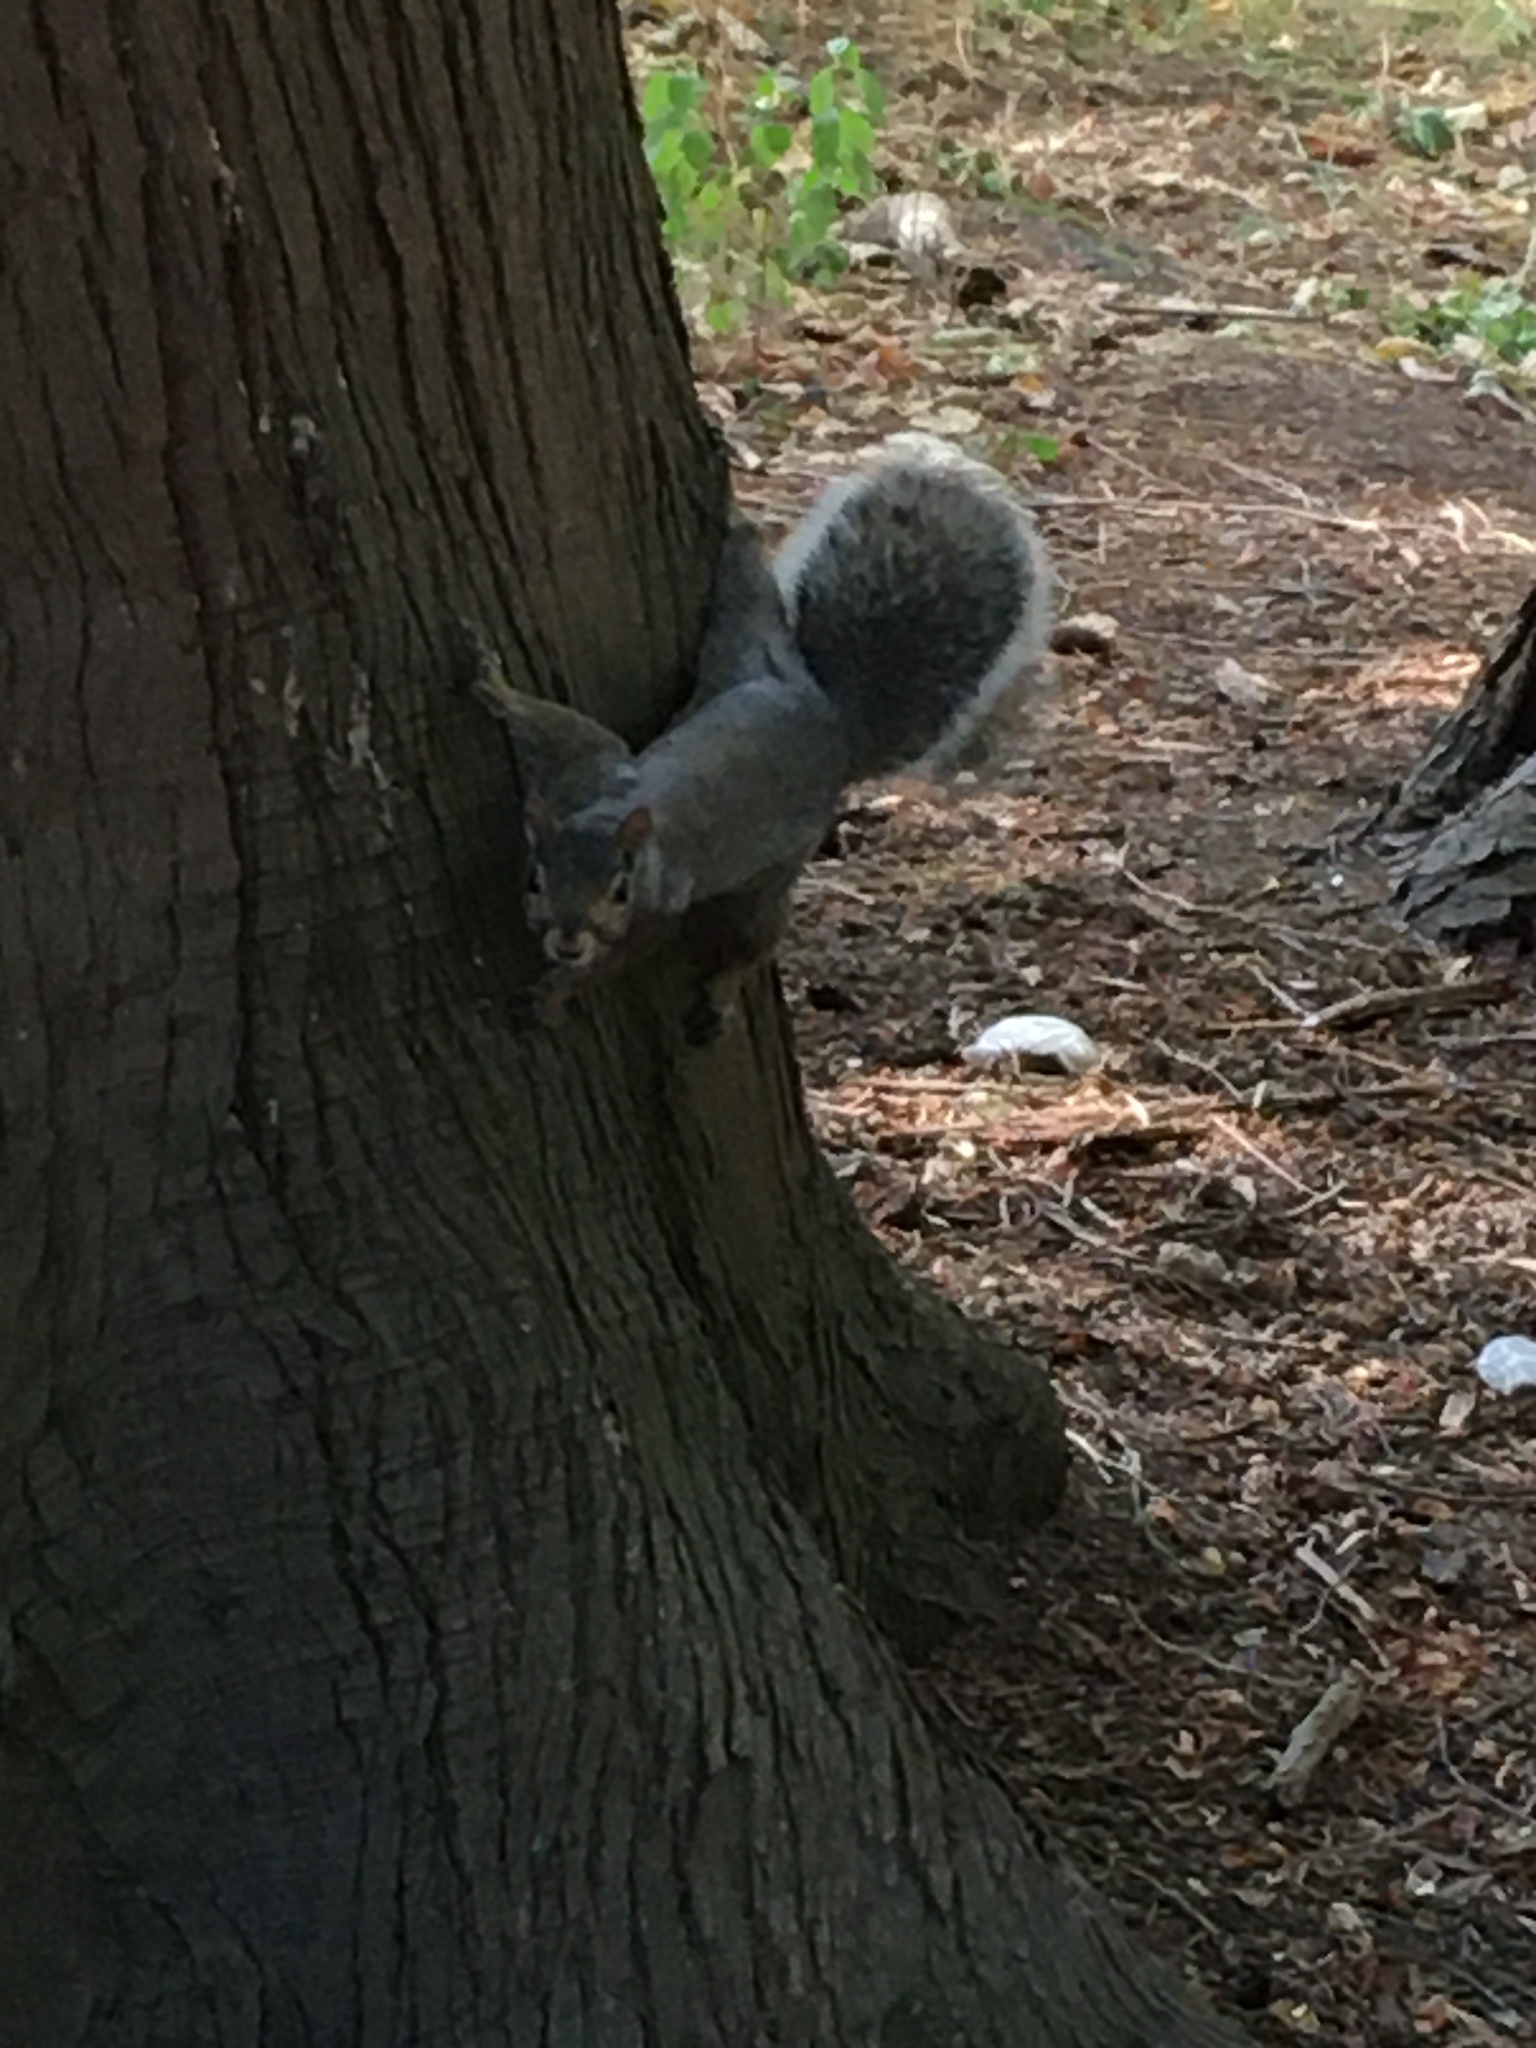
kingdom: Animalia
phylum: Chordata
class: Mammalia
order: Rodentia
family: Sciuridae
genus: Sciurus
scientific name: Sciurus carolinensis
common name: Eastern gray squirrel
